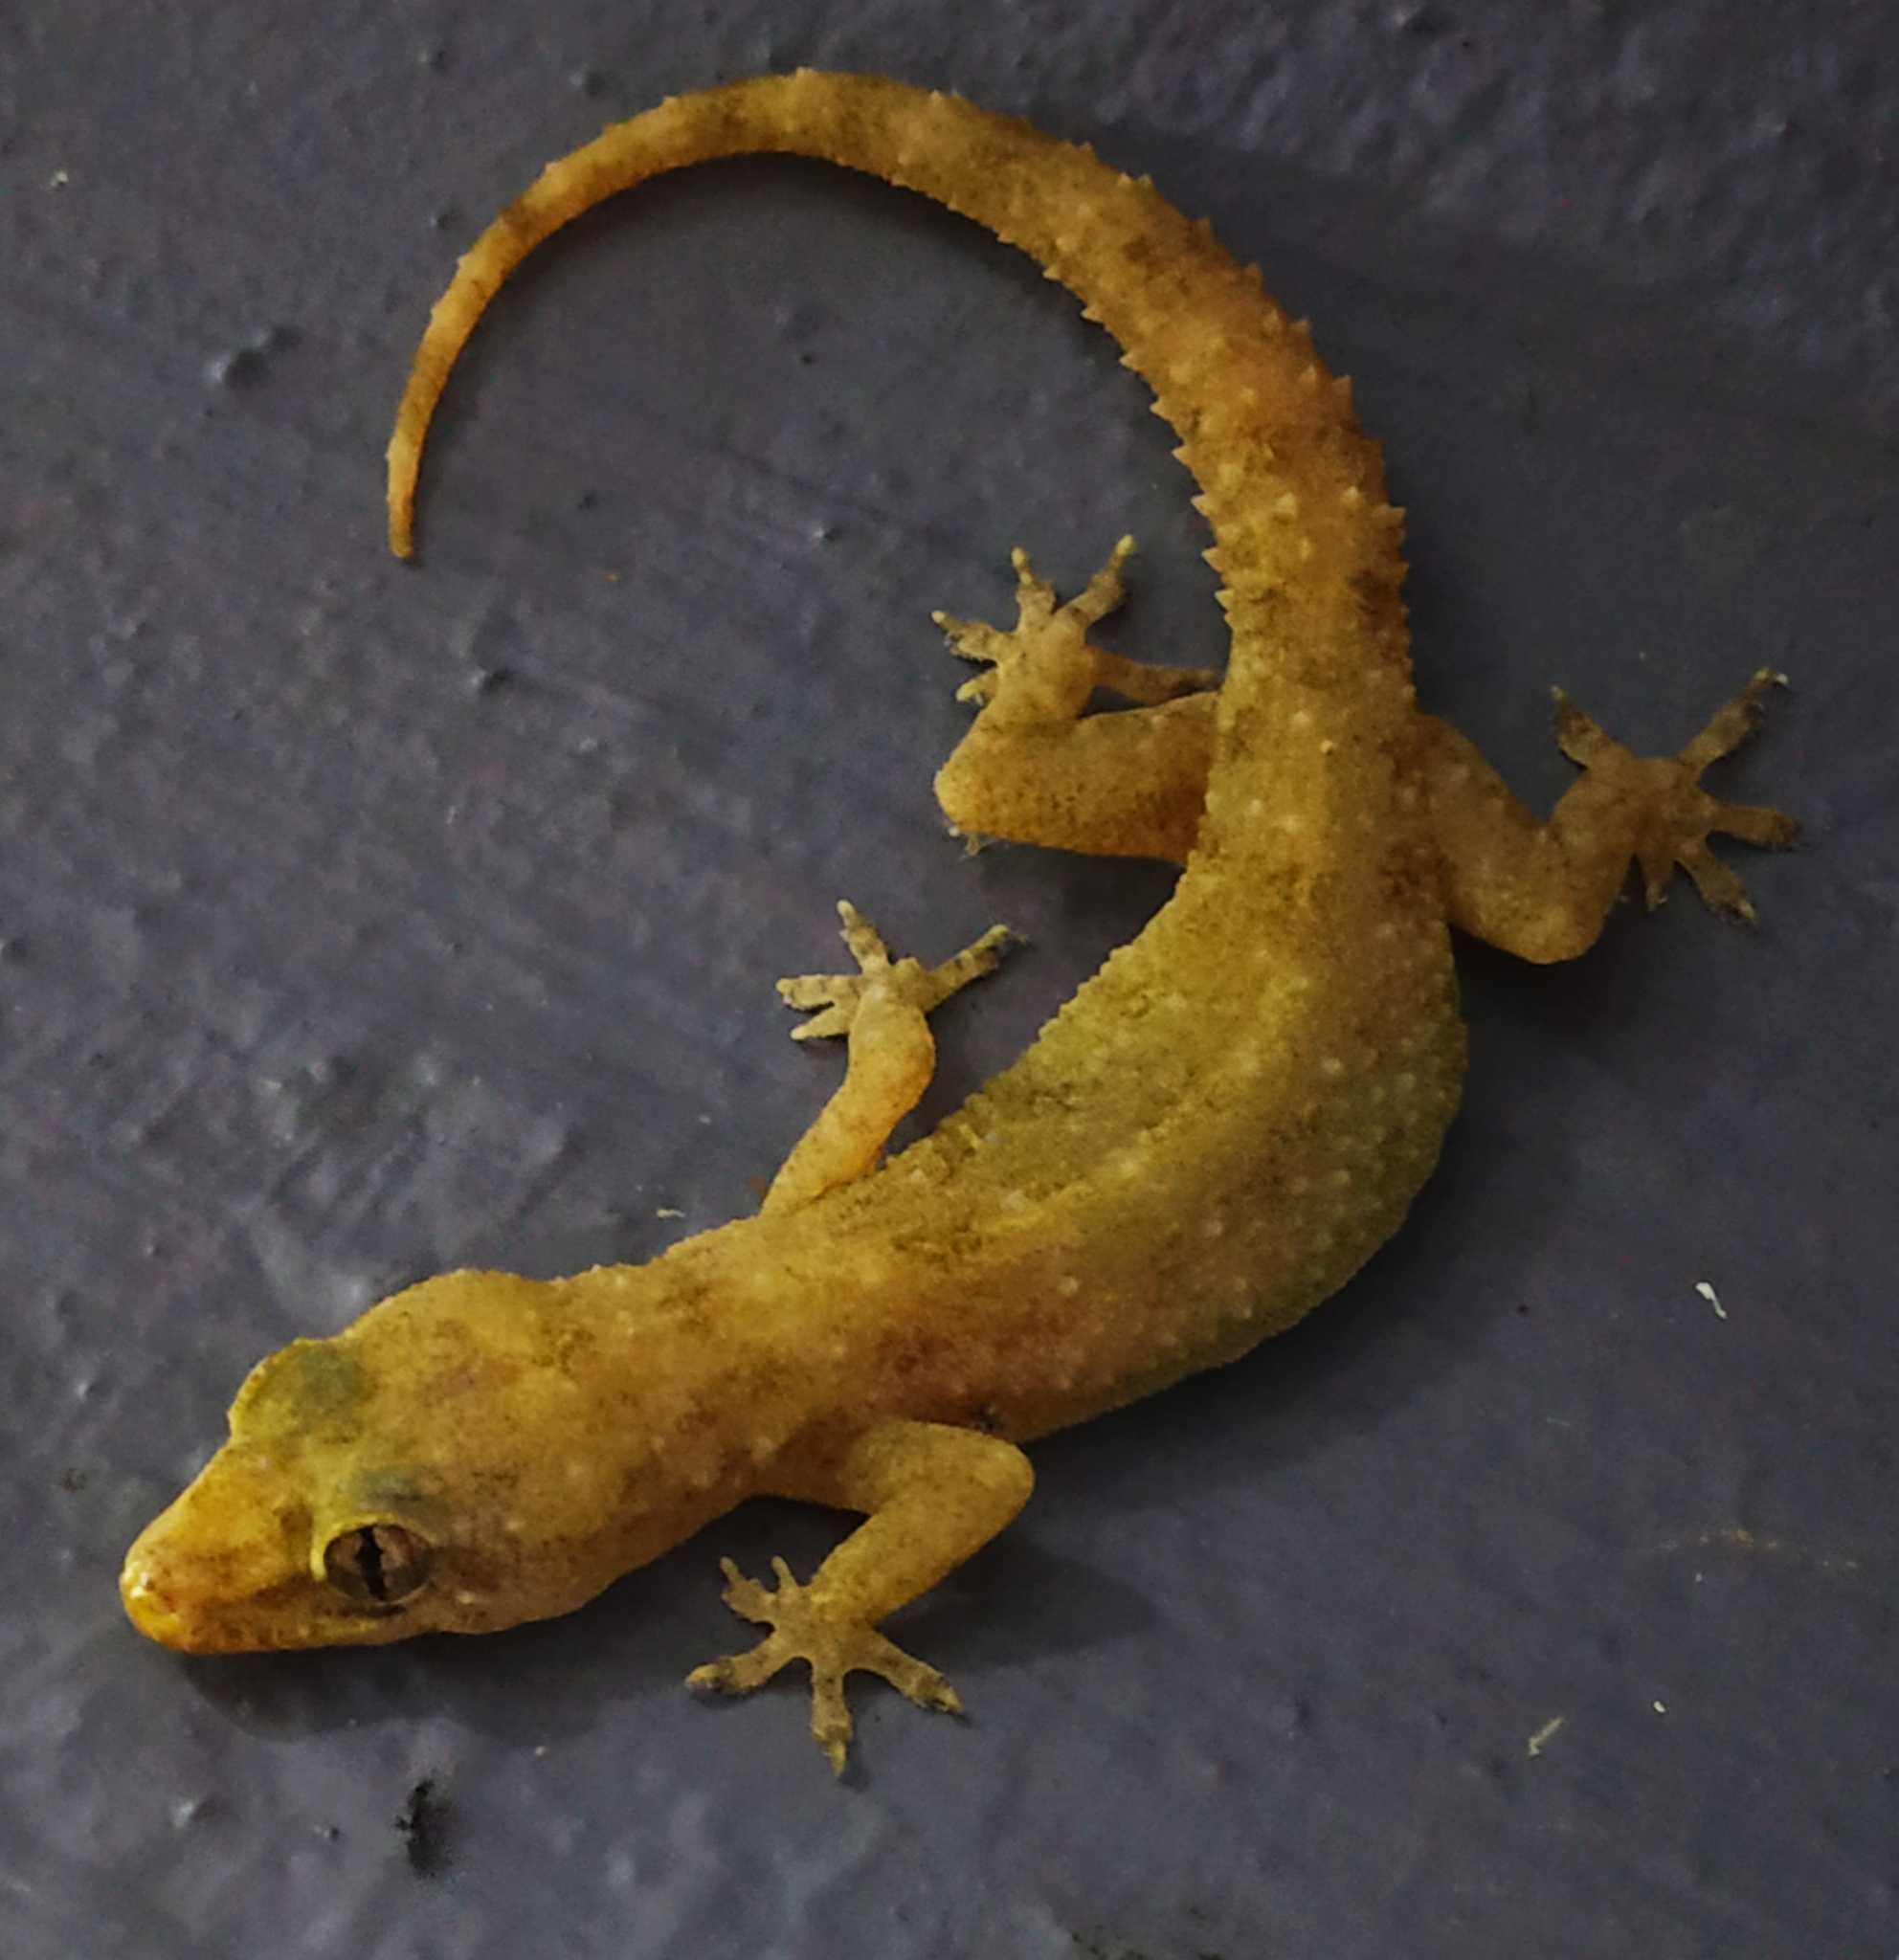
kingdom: Animalia
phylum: Chordata
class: Squamata
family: Gekkonidae
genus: Hemidactylus
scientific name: Hemidactylus brookii
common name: Brook's house gecko
